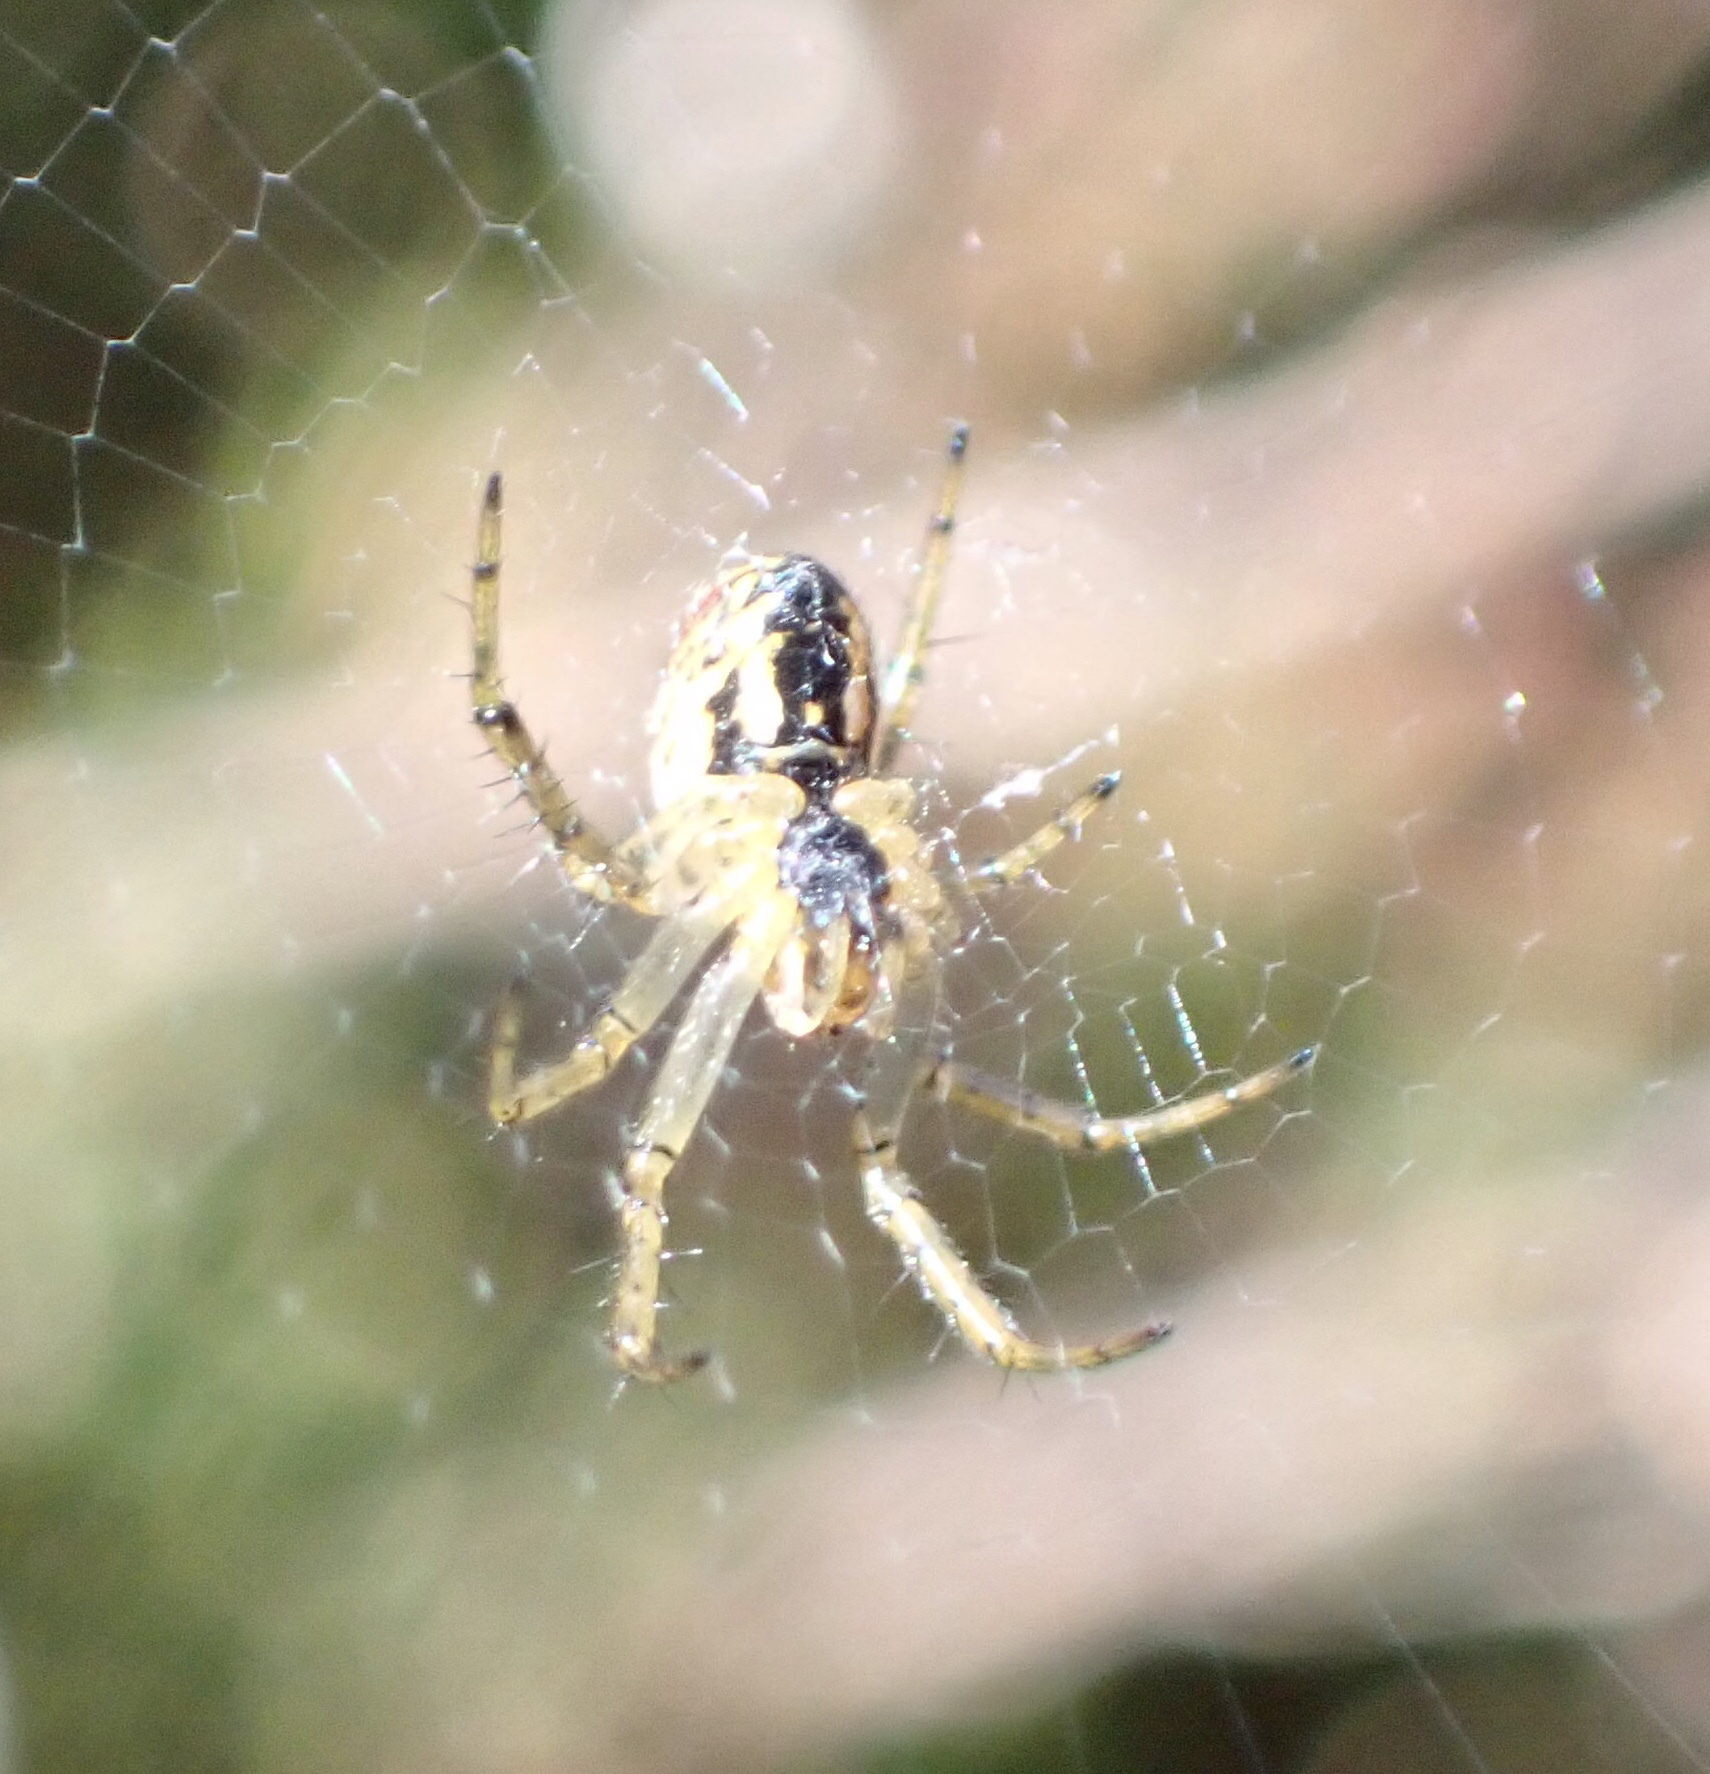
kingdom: Animalia
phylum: Arthropoda
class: Arachnida
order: Araneae
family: Araneidae
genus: Mangora
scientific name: Mangora acalypha
